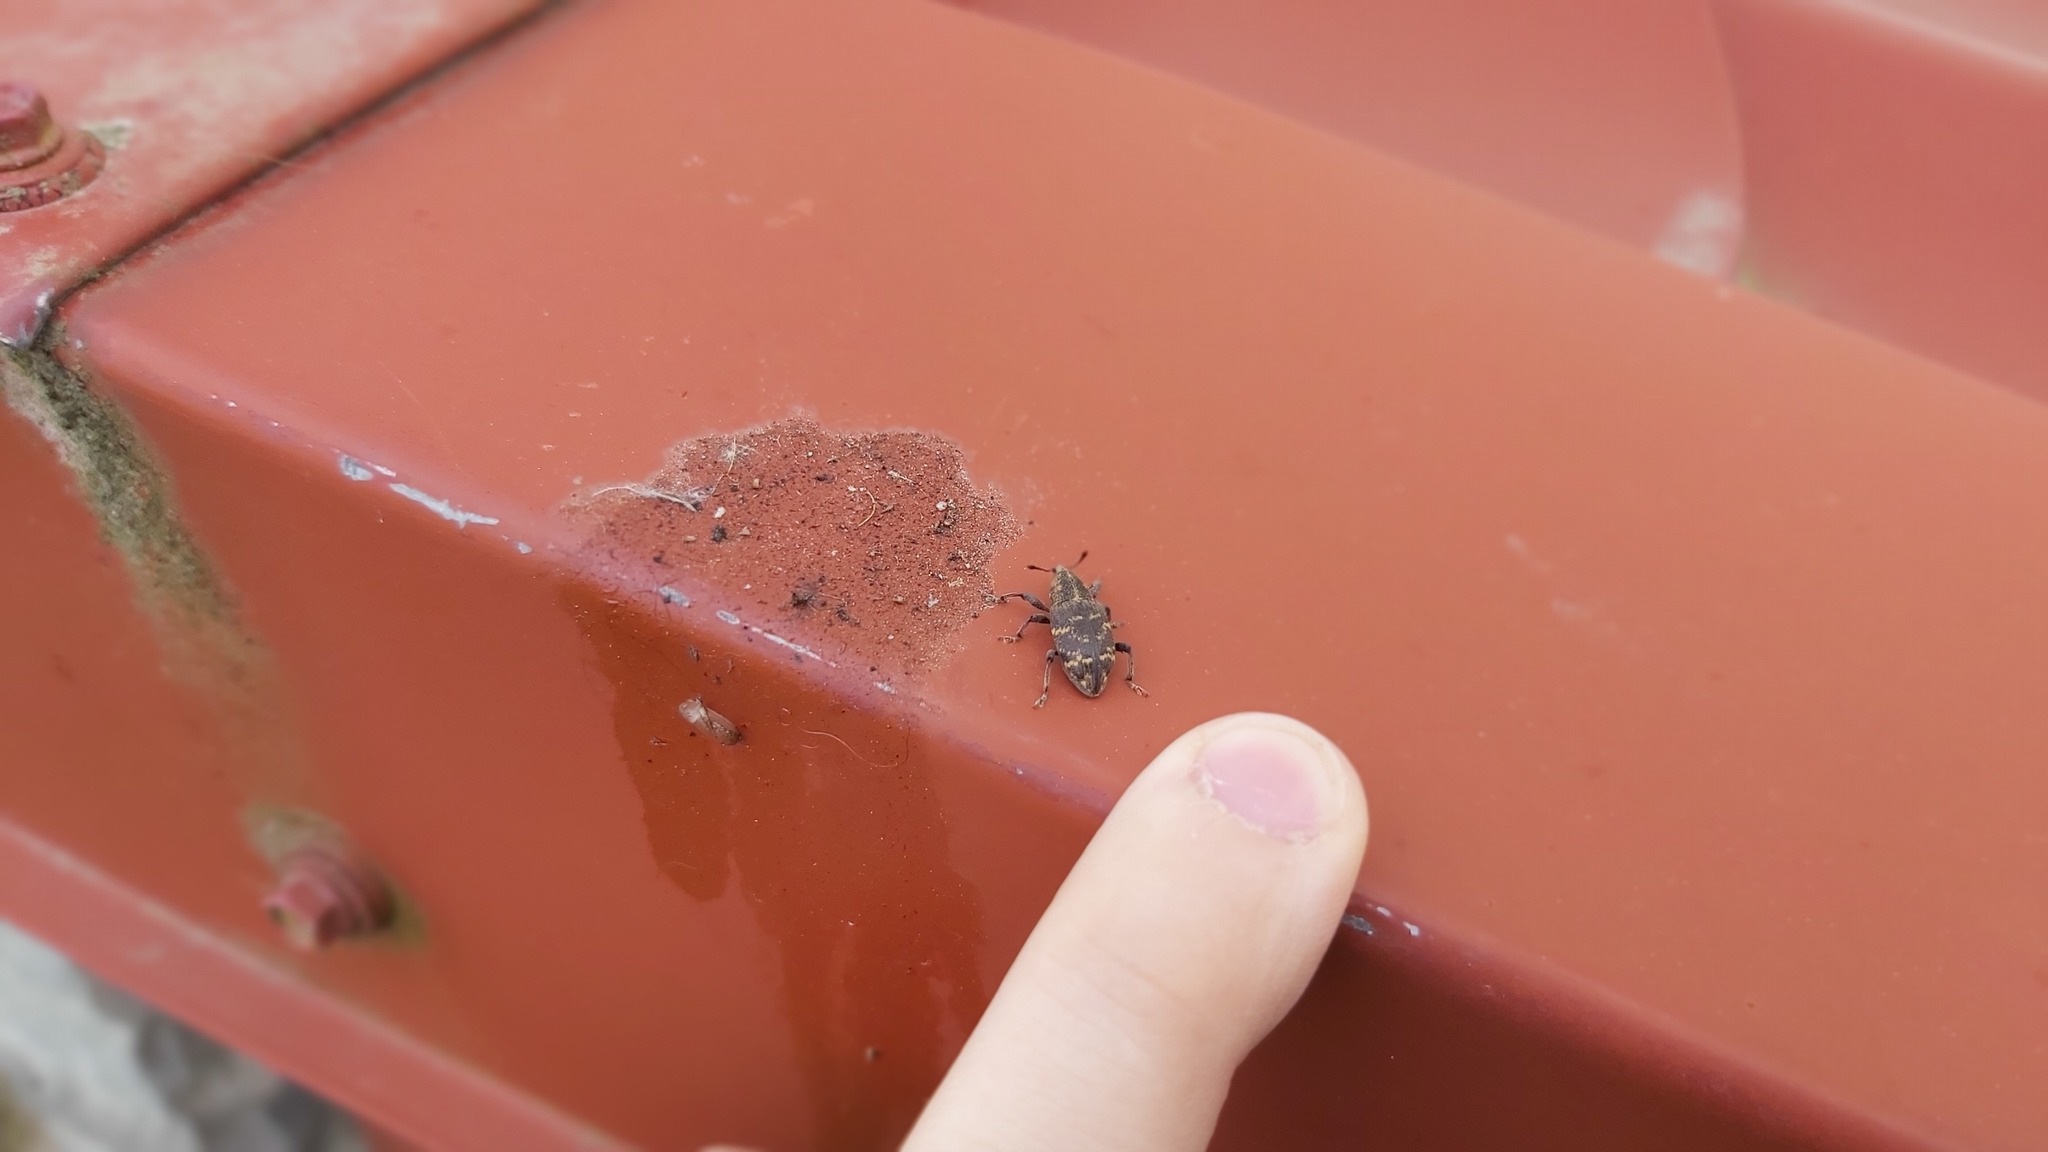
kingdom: Animalia
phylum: Arthropoda
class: Insecta
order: Coleoptera
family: Curculionidae
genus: Hylobius
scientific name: Hylobius abietis
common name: Large pine weevil
